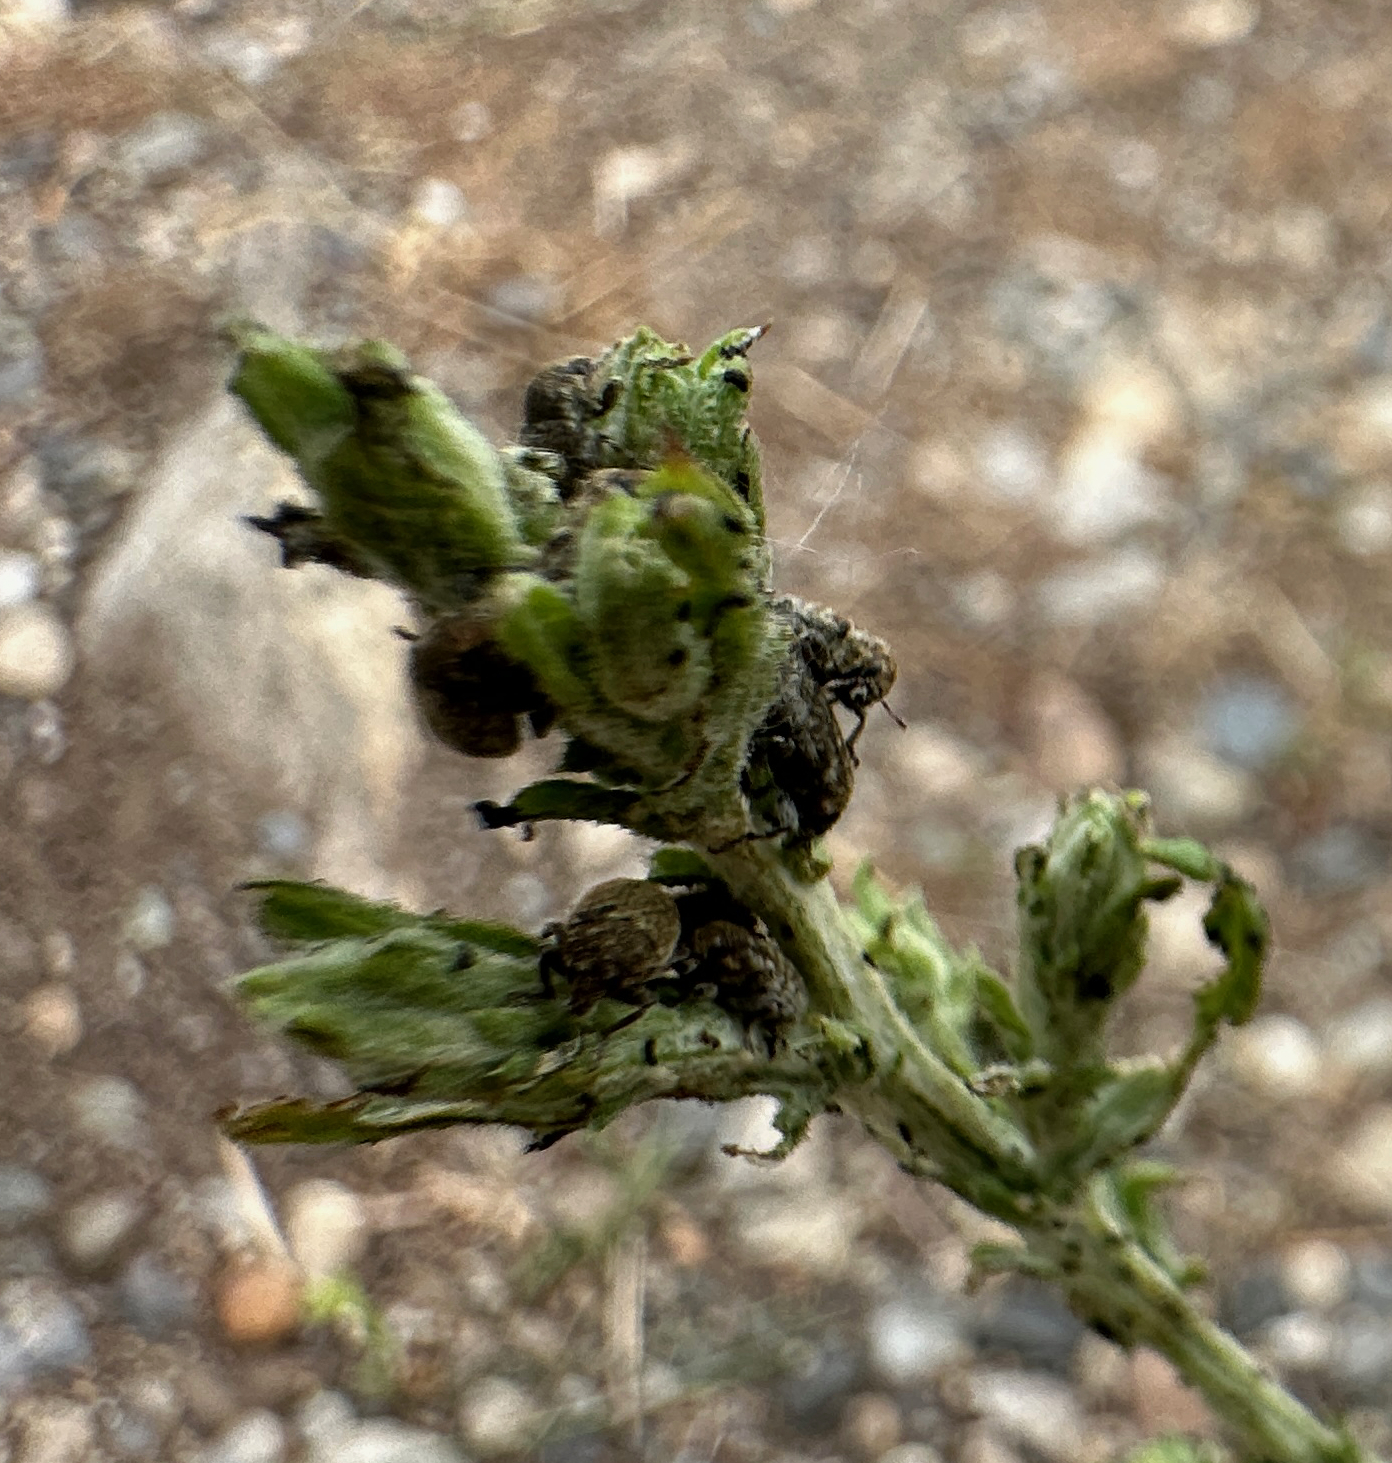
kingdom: Animalia
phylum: Arthropoda
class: Insecta
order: Coleoptera
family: Curculionidae
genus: Larinus
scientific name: Larinus minutus
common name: Weevil
